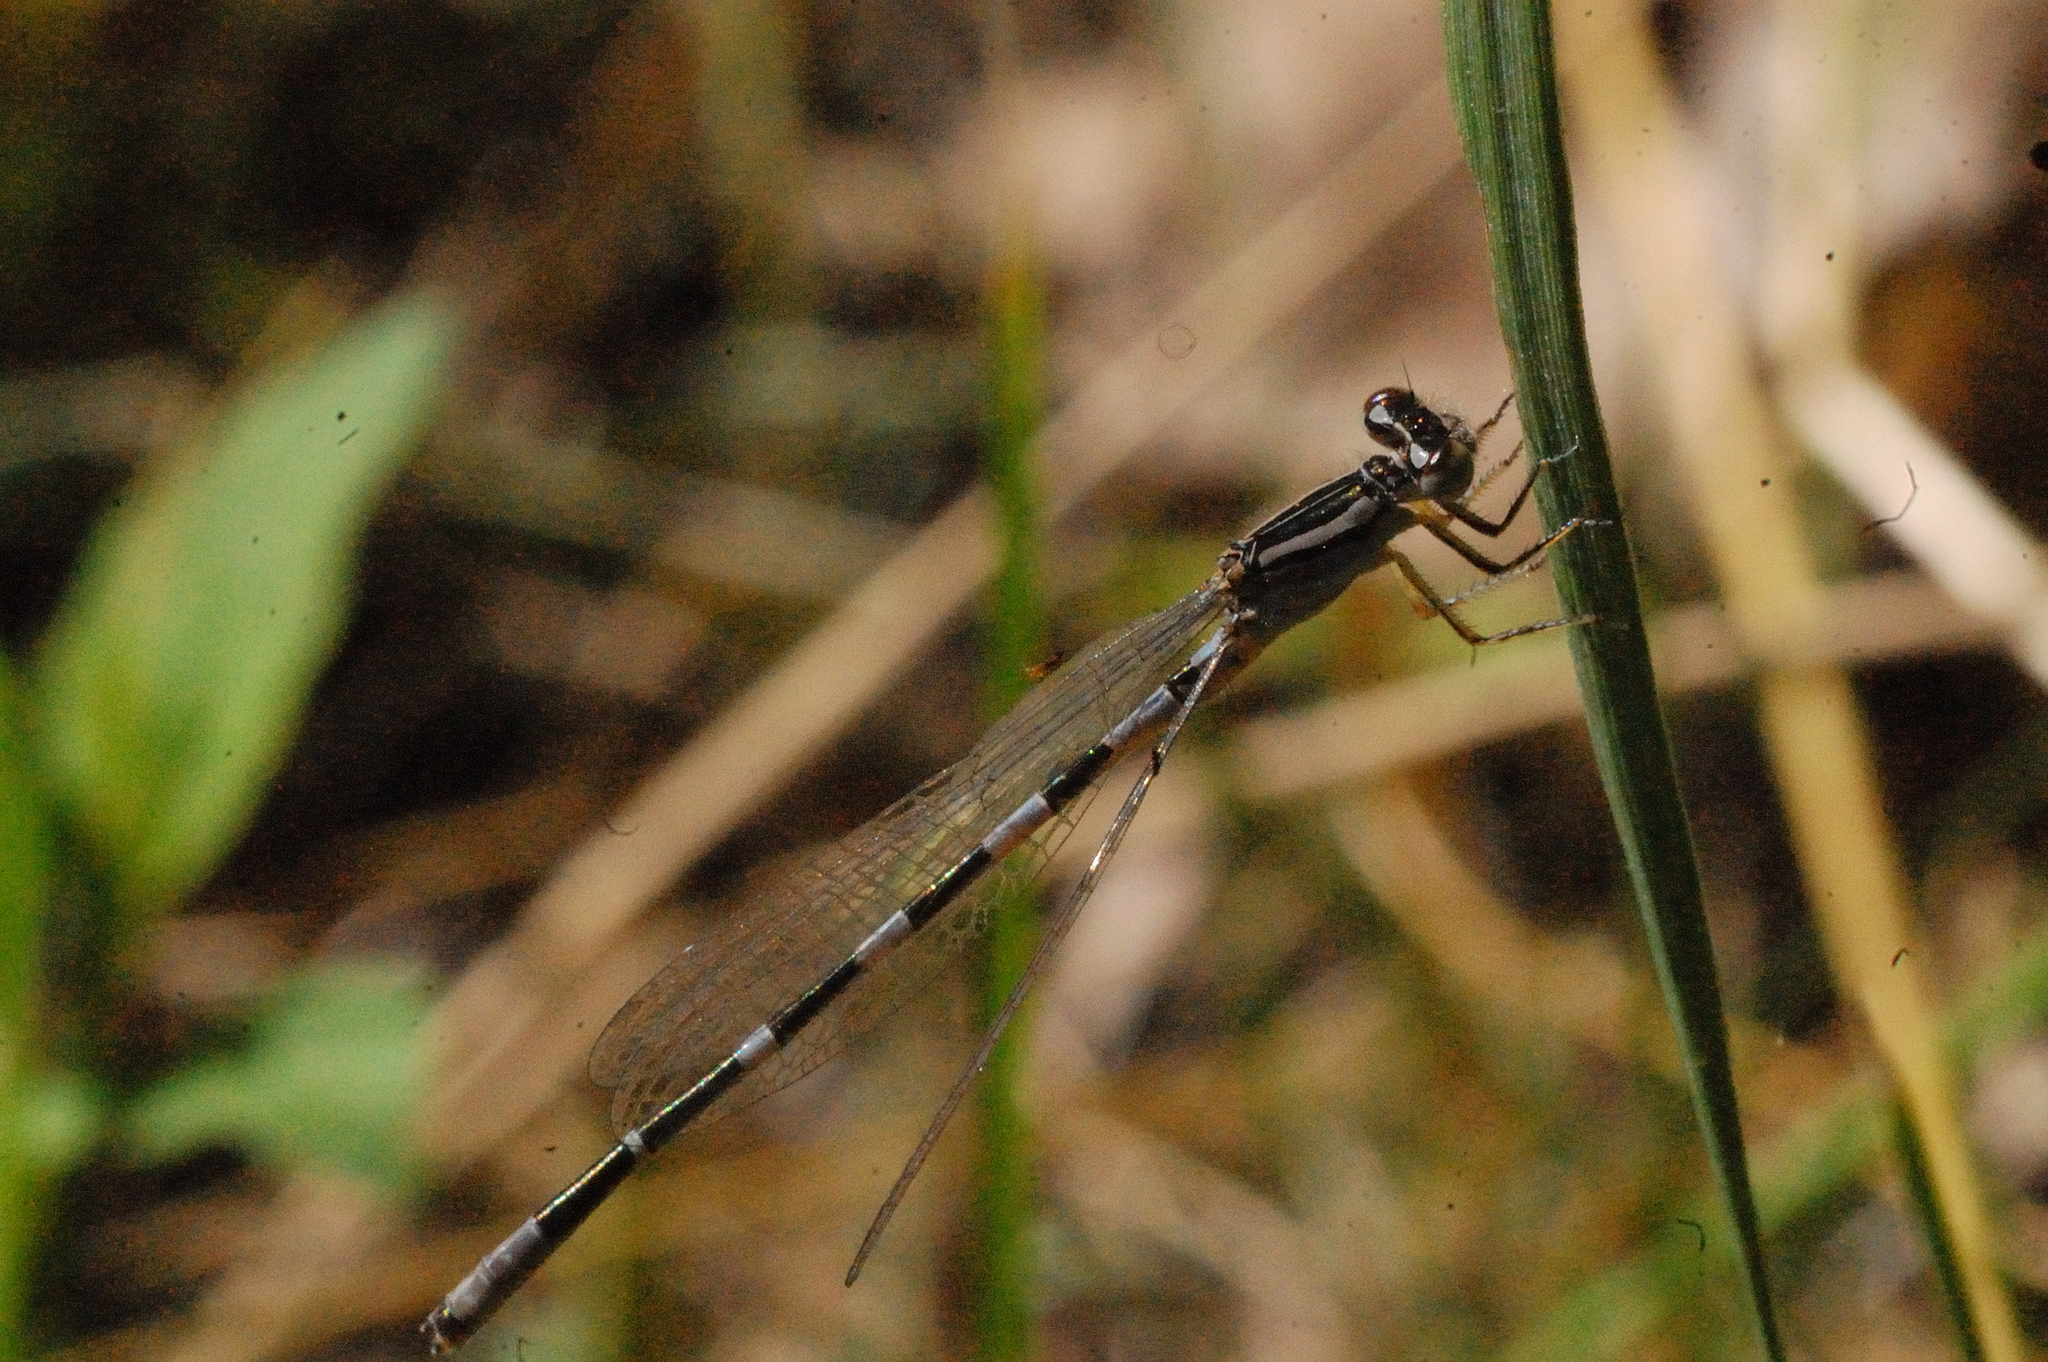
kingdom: Animalia
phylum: Arthropoda
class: Insecta
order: Odonata
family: Coenagrionidae
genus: Enallagma
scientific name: Enallagma carunculatum
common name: Tule bluet
